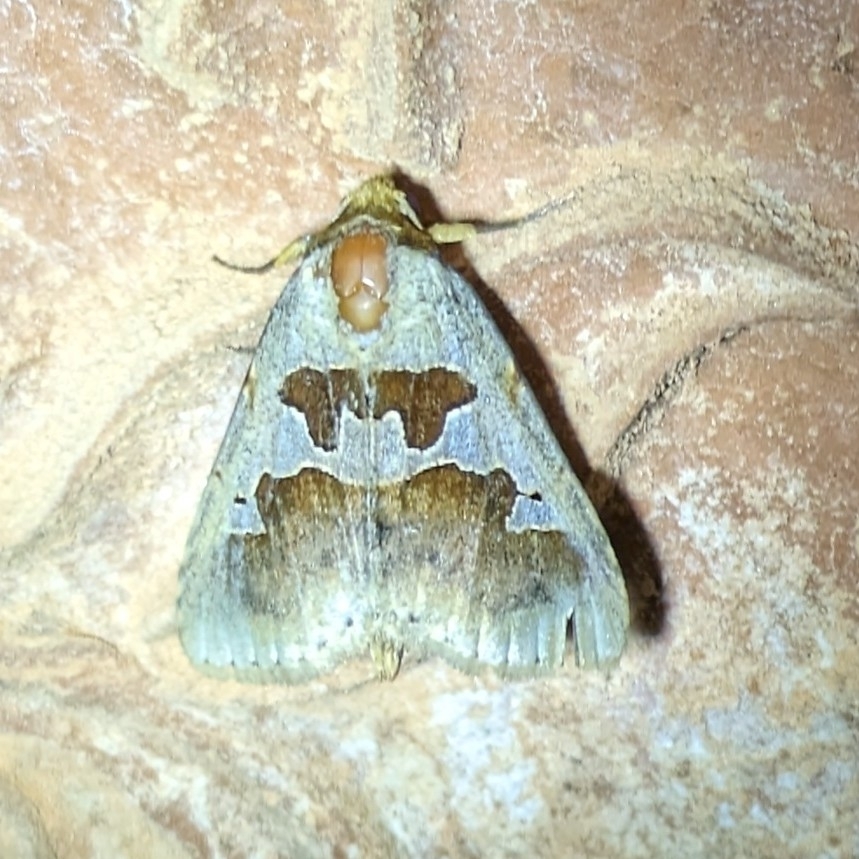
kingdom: Animalia
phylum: Arthropoda
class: Insecta
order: Lepidoptera
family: Erebidae
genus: Crithote
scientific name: Crithote horridipes
